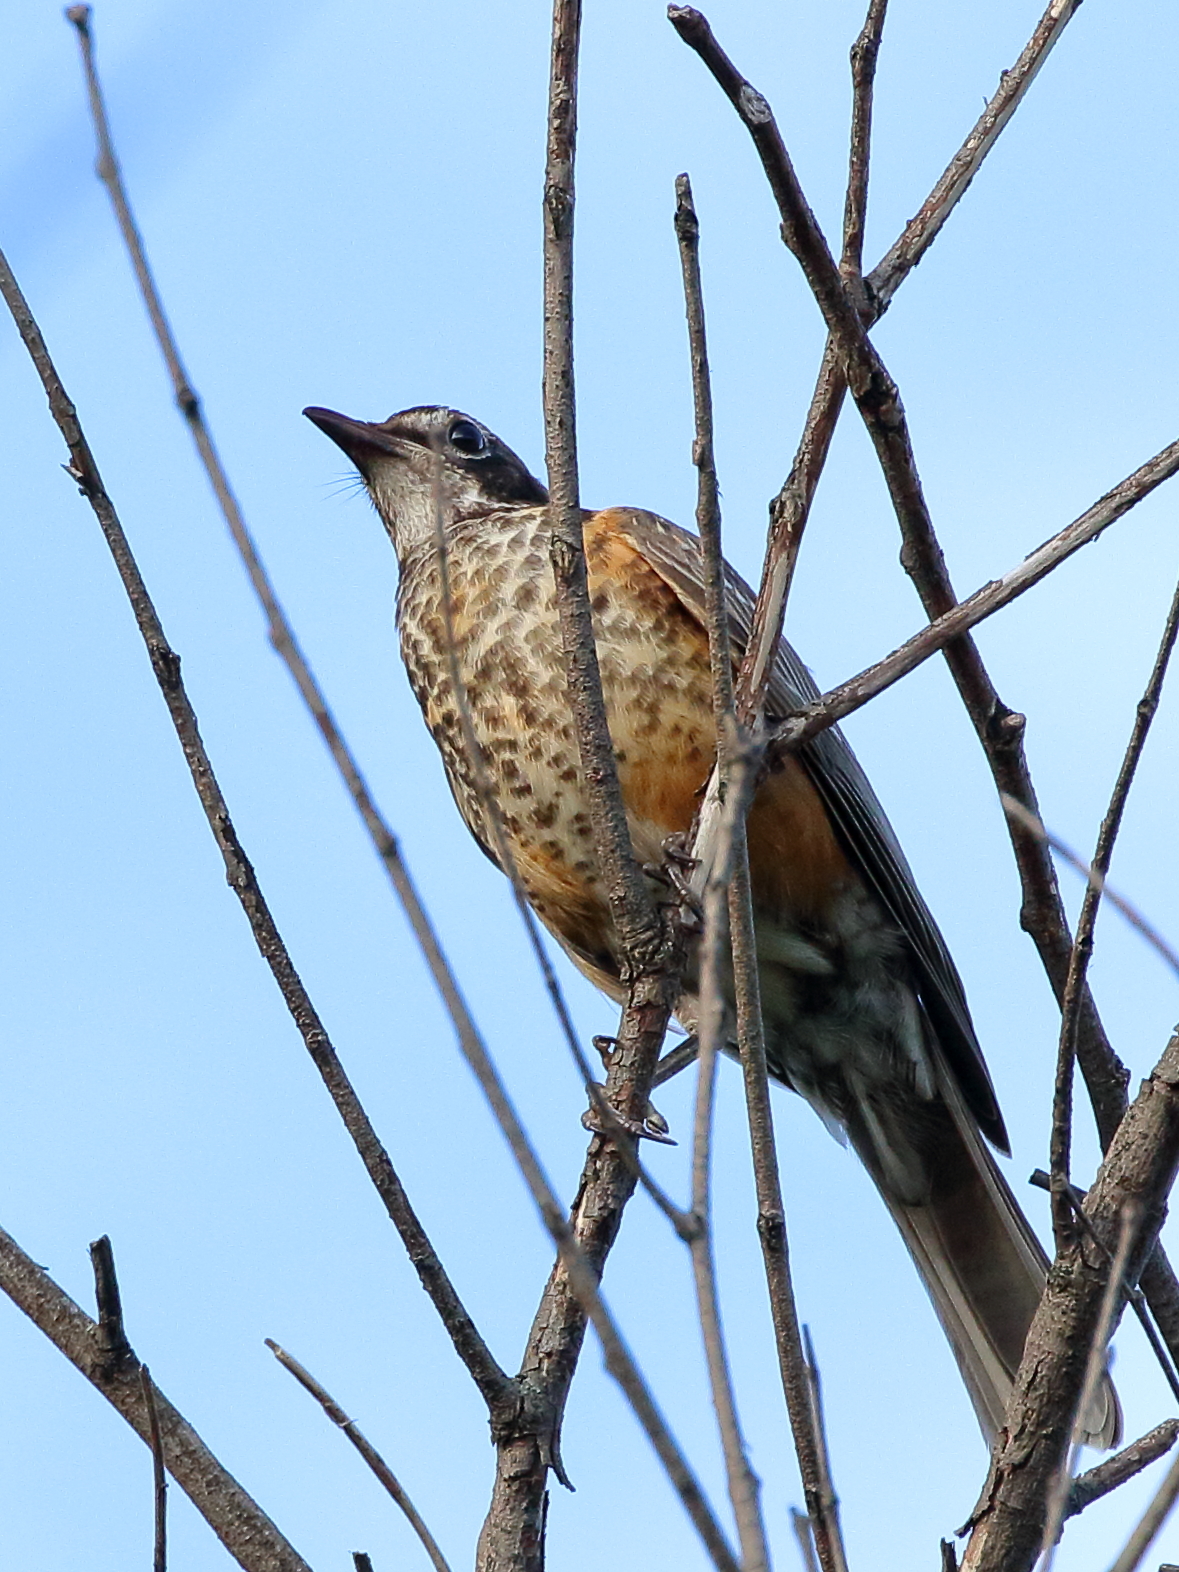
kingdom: Animalia
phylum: Chordata
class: Aves
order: Passeriformes
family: Turdidae
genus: Turdus
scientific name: Turdus migratorius
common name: American robin
